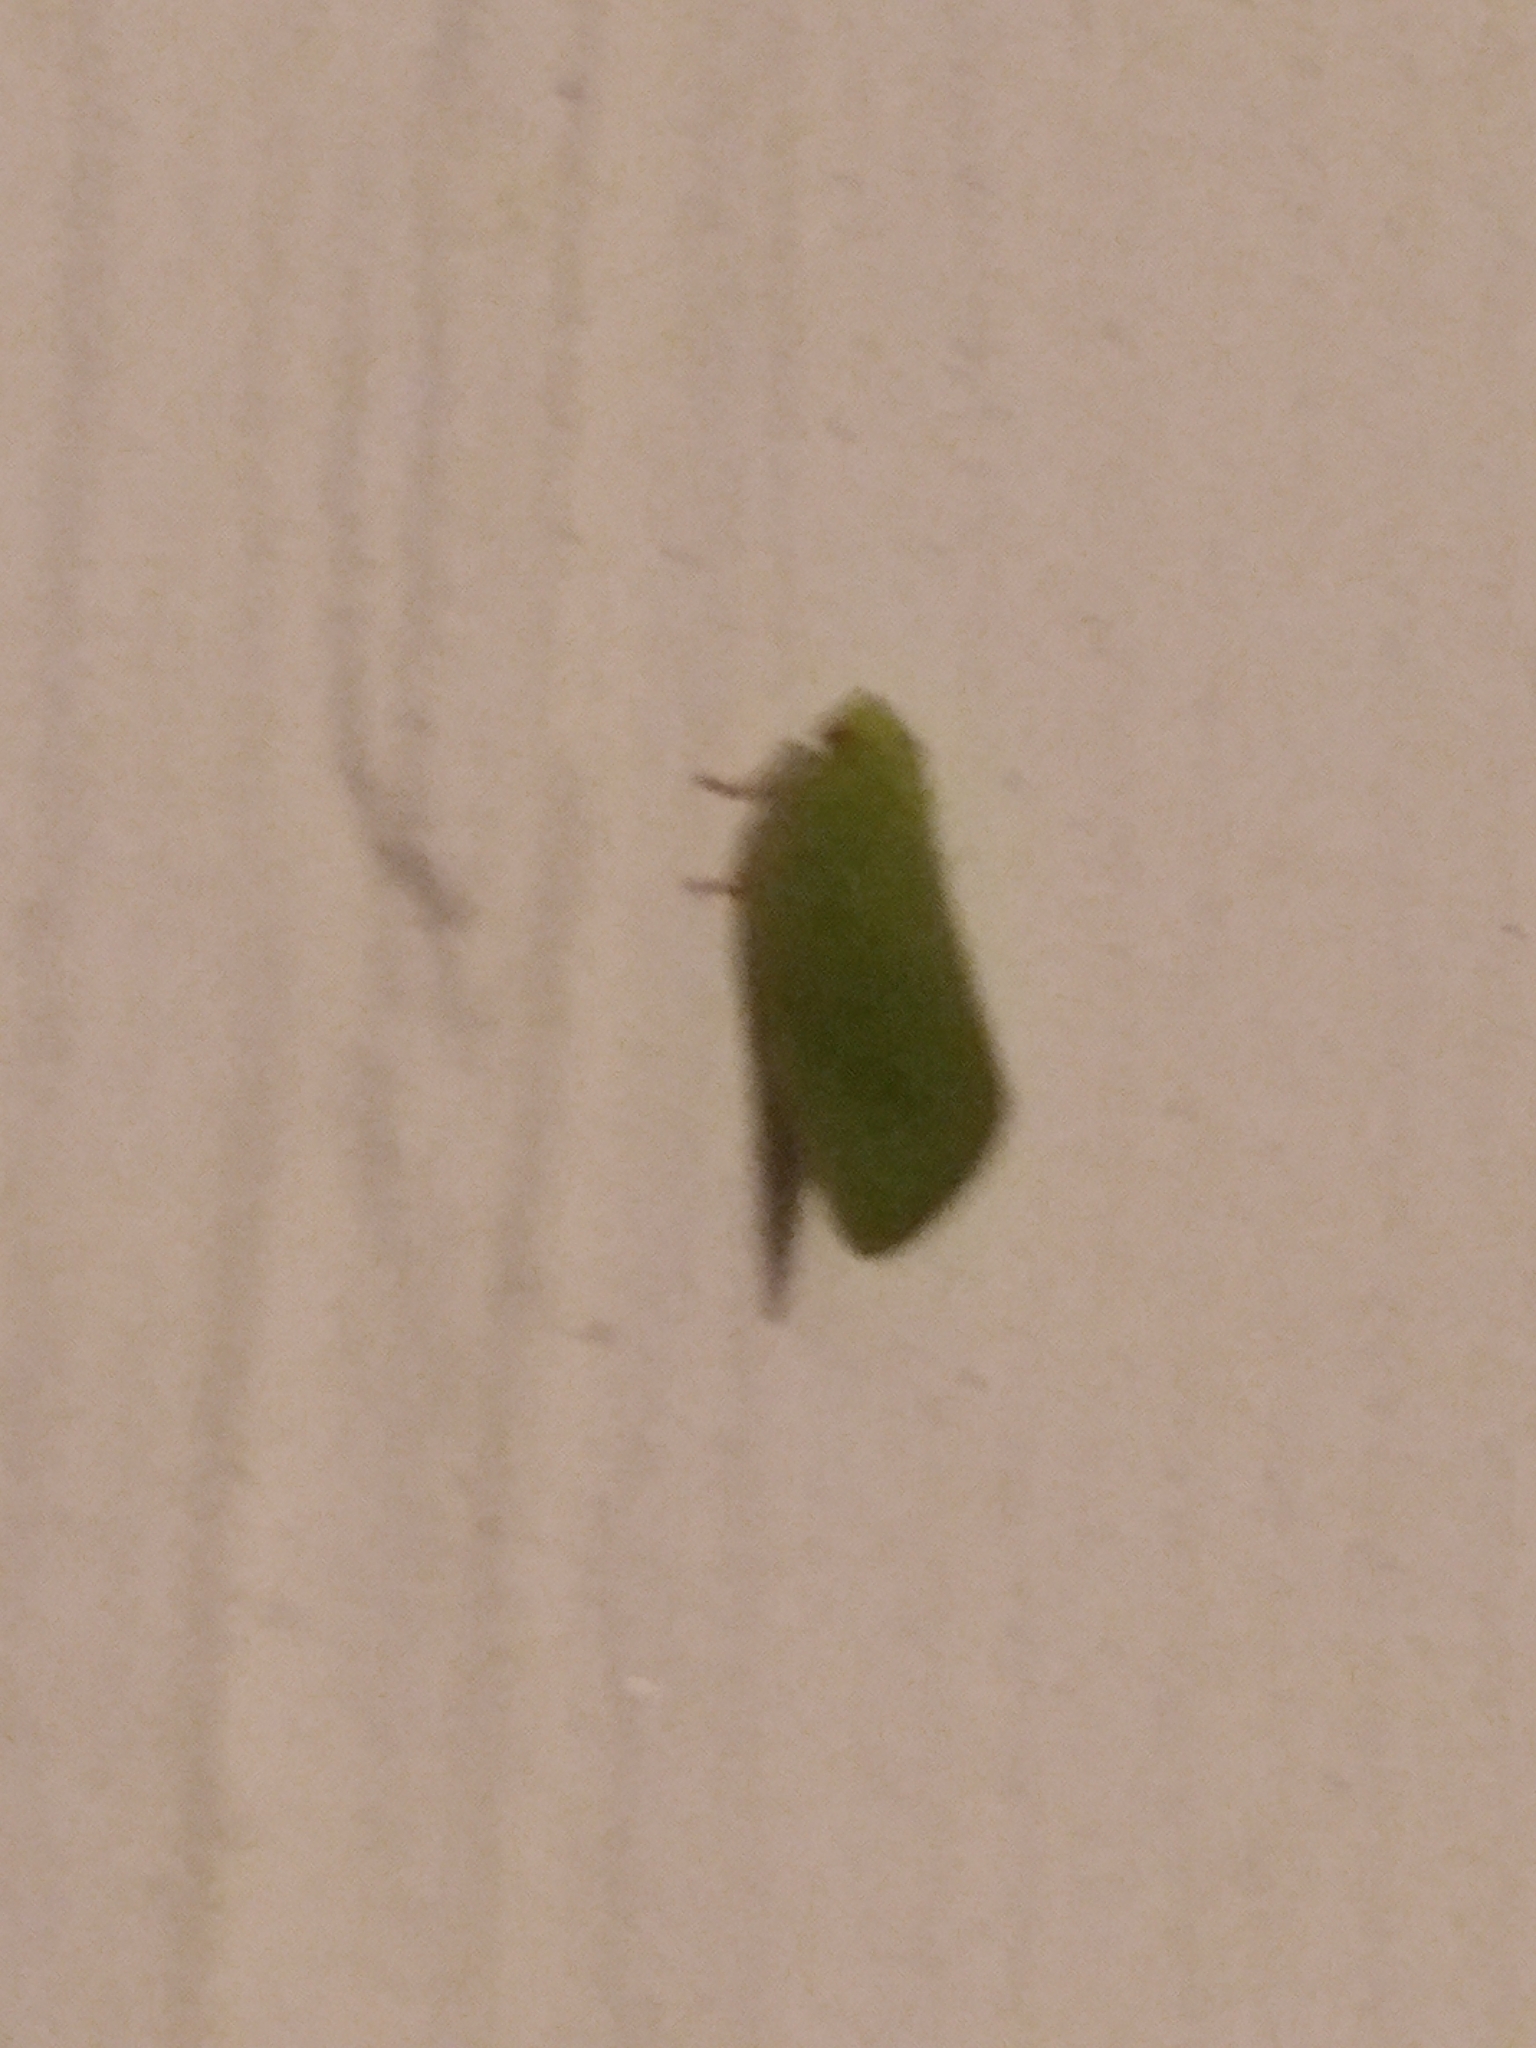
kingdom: Animalia
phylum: Arthropoda
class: Insecta
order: Hemiptera
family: Acanaloniidae
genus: Acanalonia
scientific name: Acanalonia conica
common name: Green cone-headed planthopper
